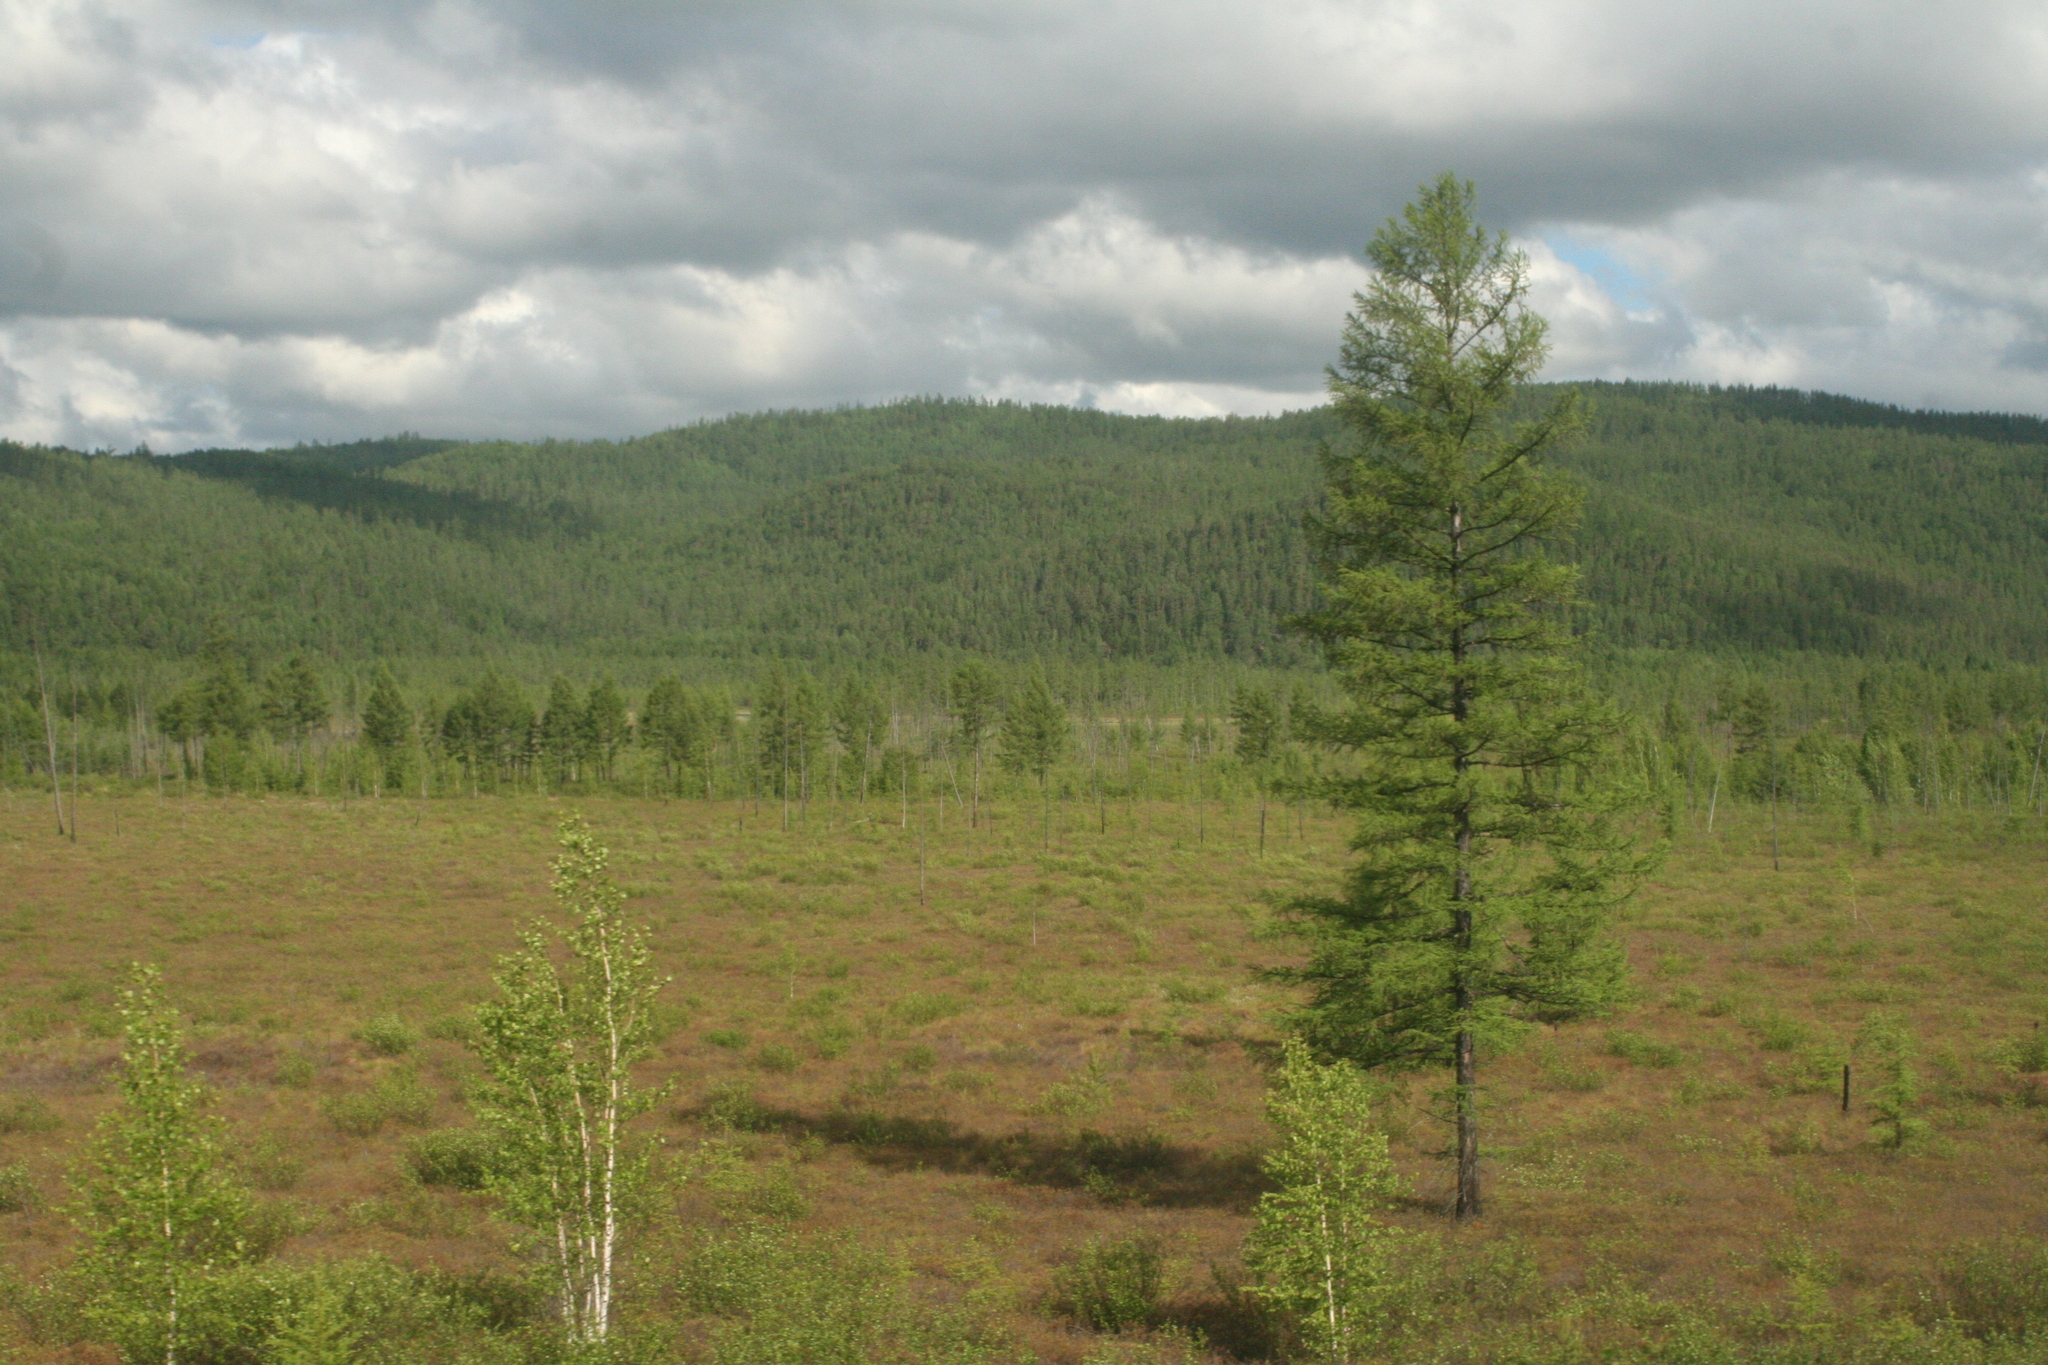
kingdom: Plantae
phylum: Tracheophyta
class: Pinopsida
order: Pinales
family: Pinaceae
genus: Larix
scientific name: Larix gmelinii
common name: Dahurian larch
